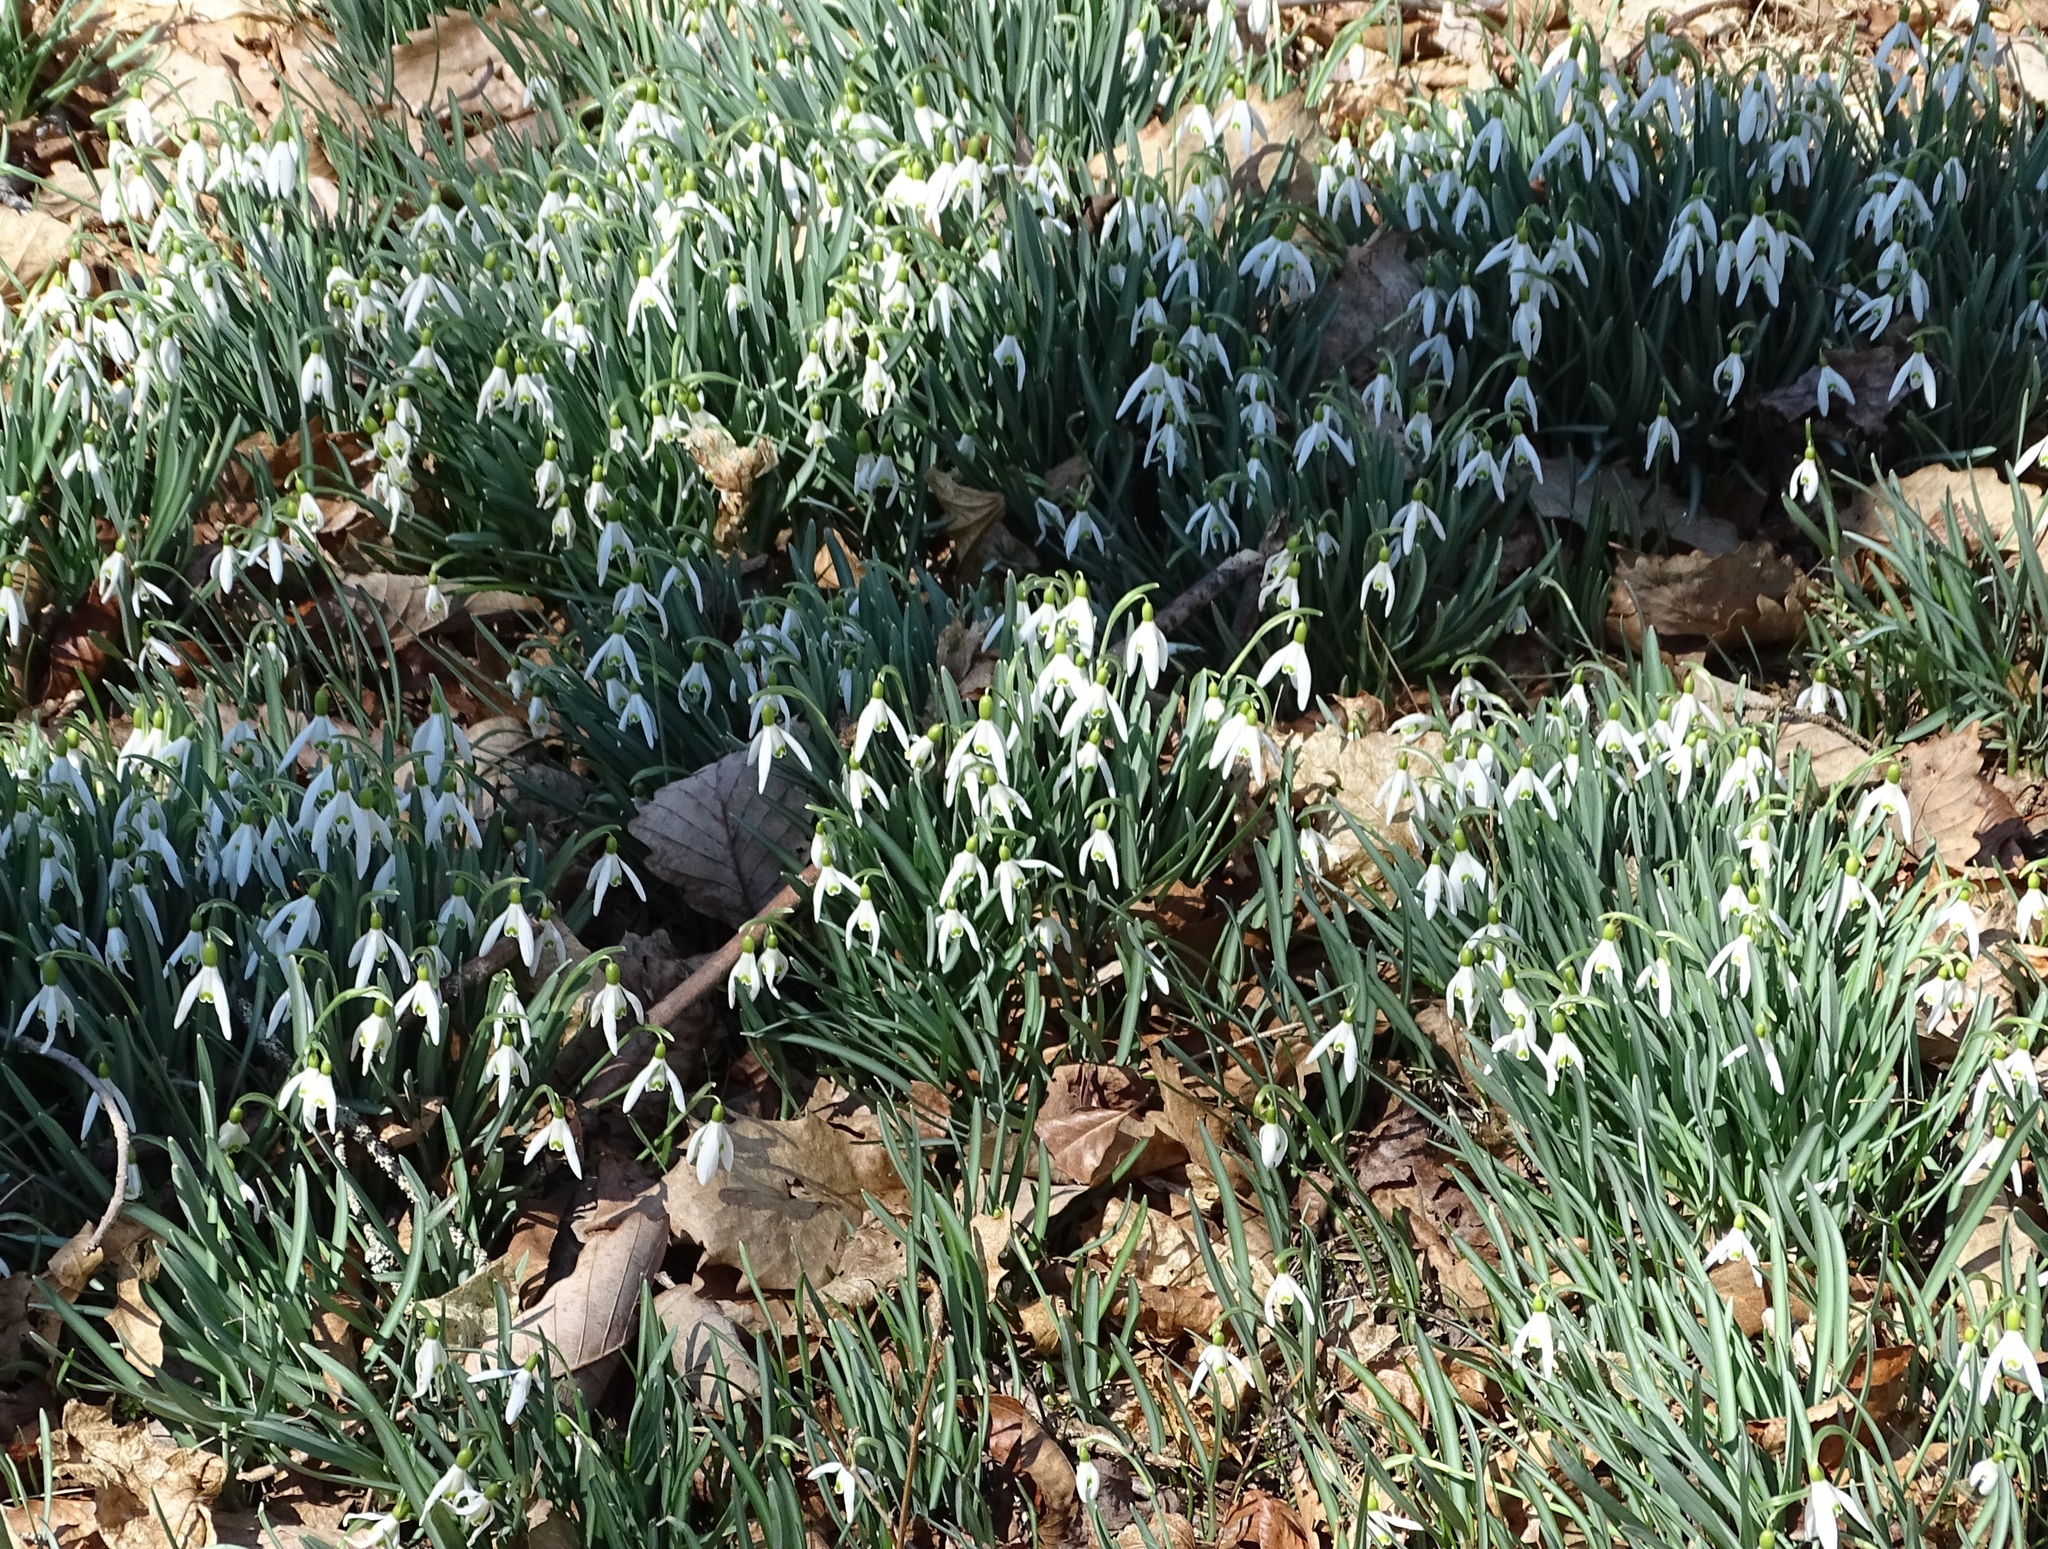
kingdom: Plantae
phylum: Tracheophyta
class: Liliopsida
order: Asparagales
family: Amaryllidaceae
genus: Galanthus
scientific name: Galanthus nivalis
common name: Snowdrop
